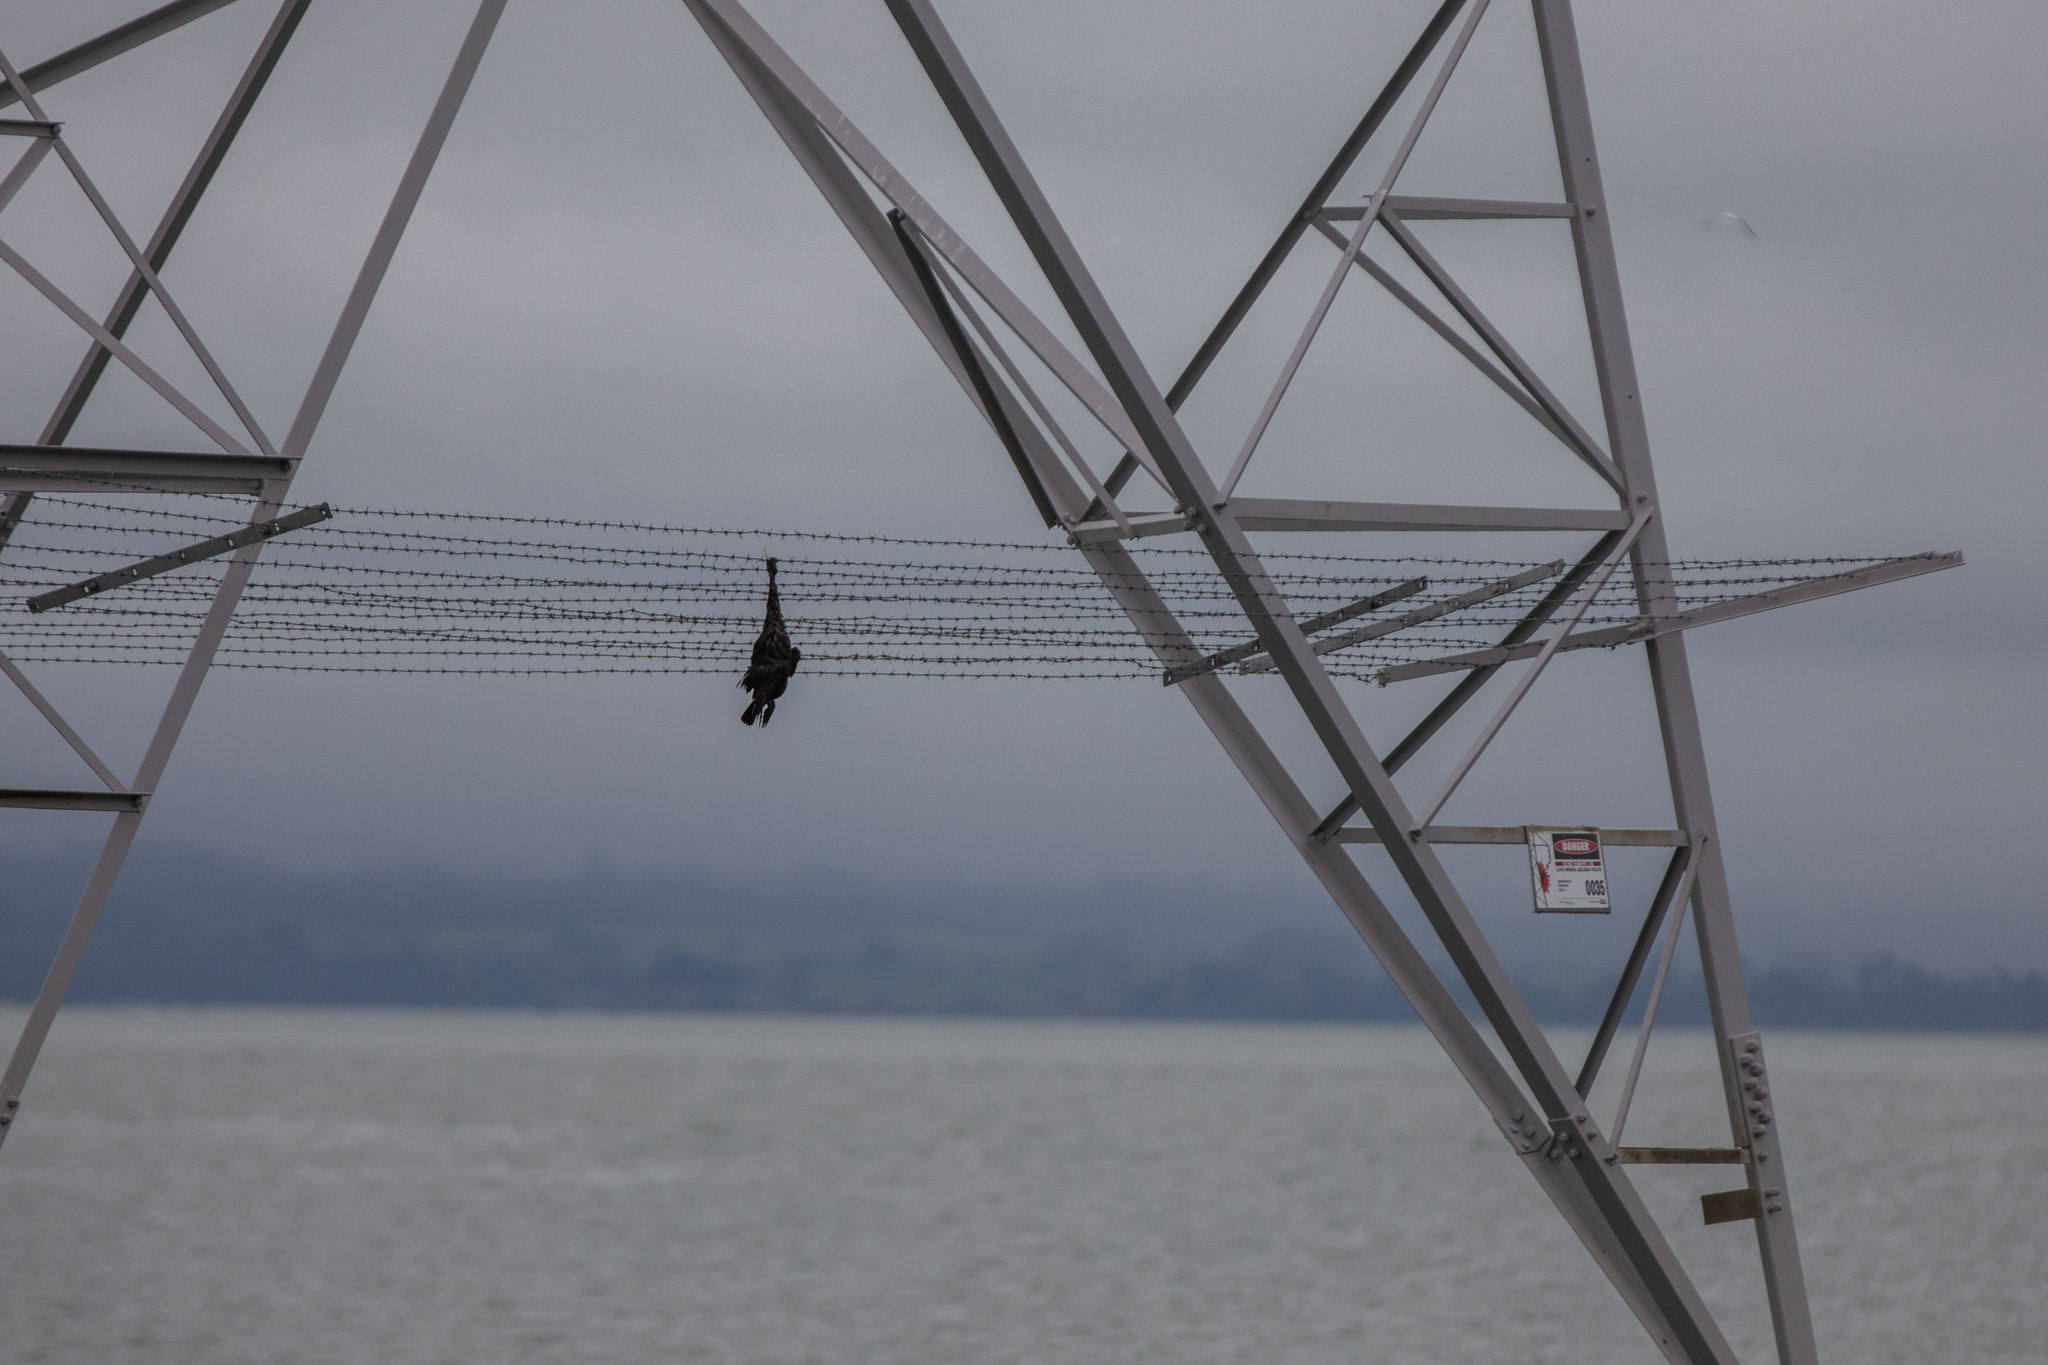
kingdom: Animalia
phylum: Chordata
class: Aves
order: Suliformes
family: Phalacrocoracidae
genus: Phalacrocorax
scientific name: Phalacrocorax sulcirostris
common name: Little black cormorant
